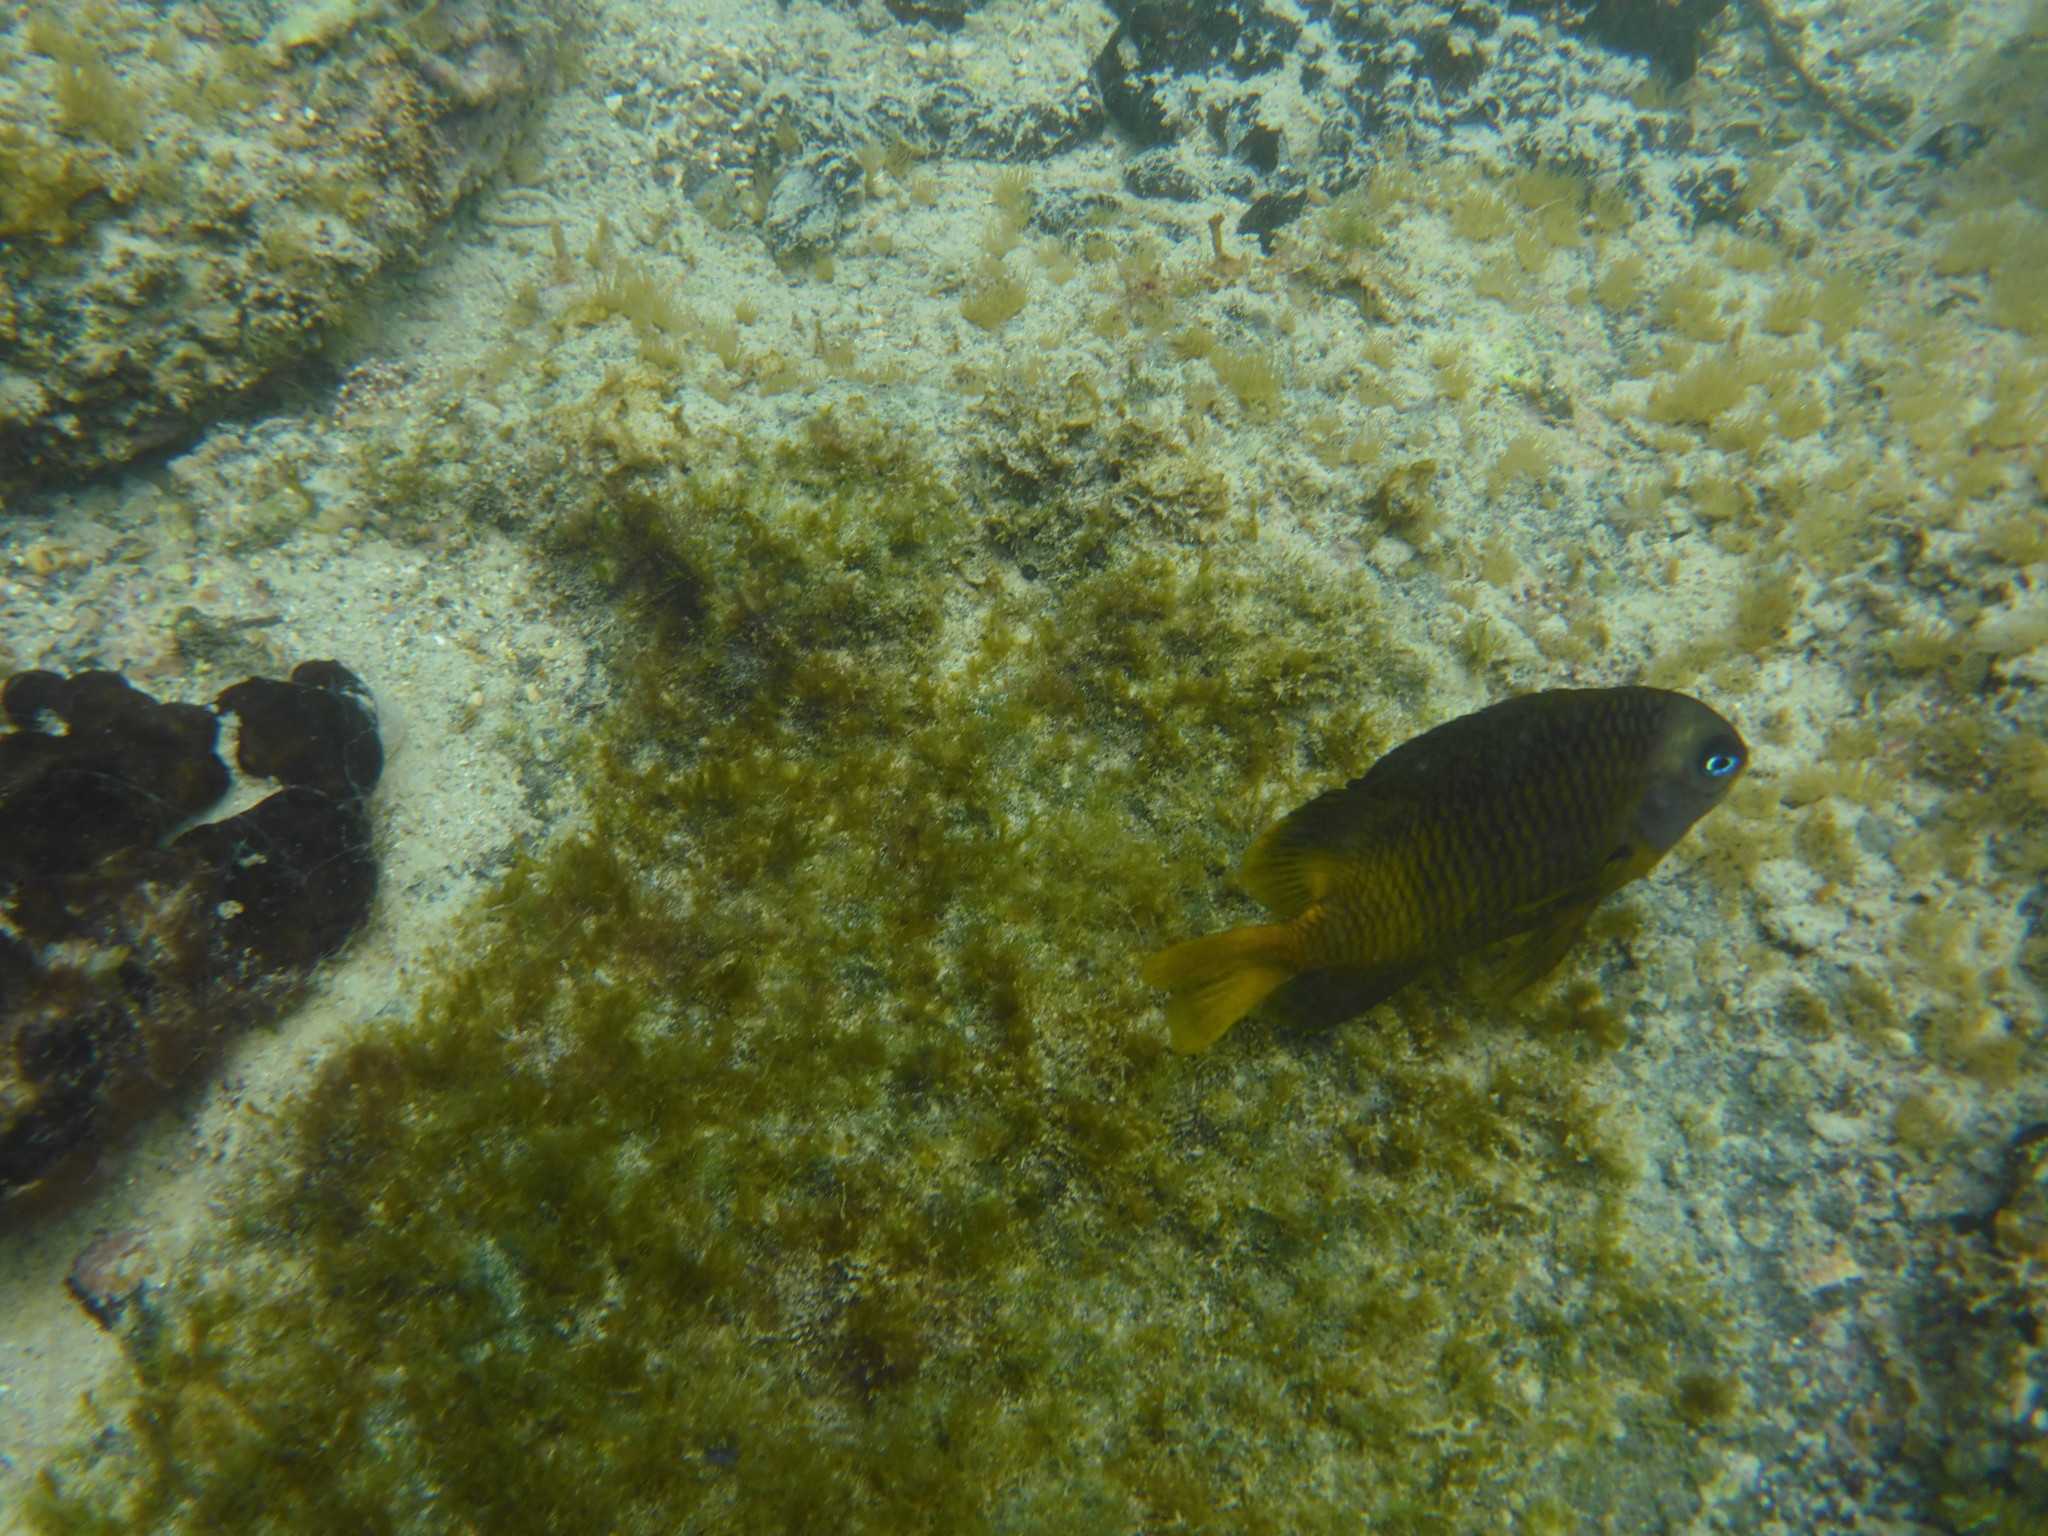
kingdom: Animalia
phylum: Chordata
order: Perciformes
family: Pomacentridae
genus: Stegastes
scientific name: Stegastes arcifrons
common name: Galapagos gregory
